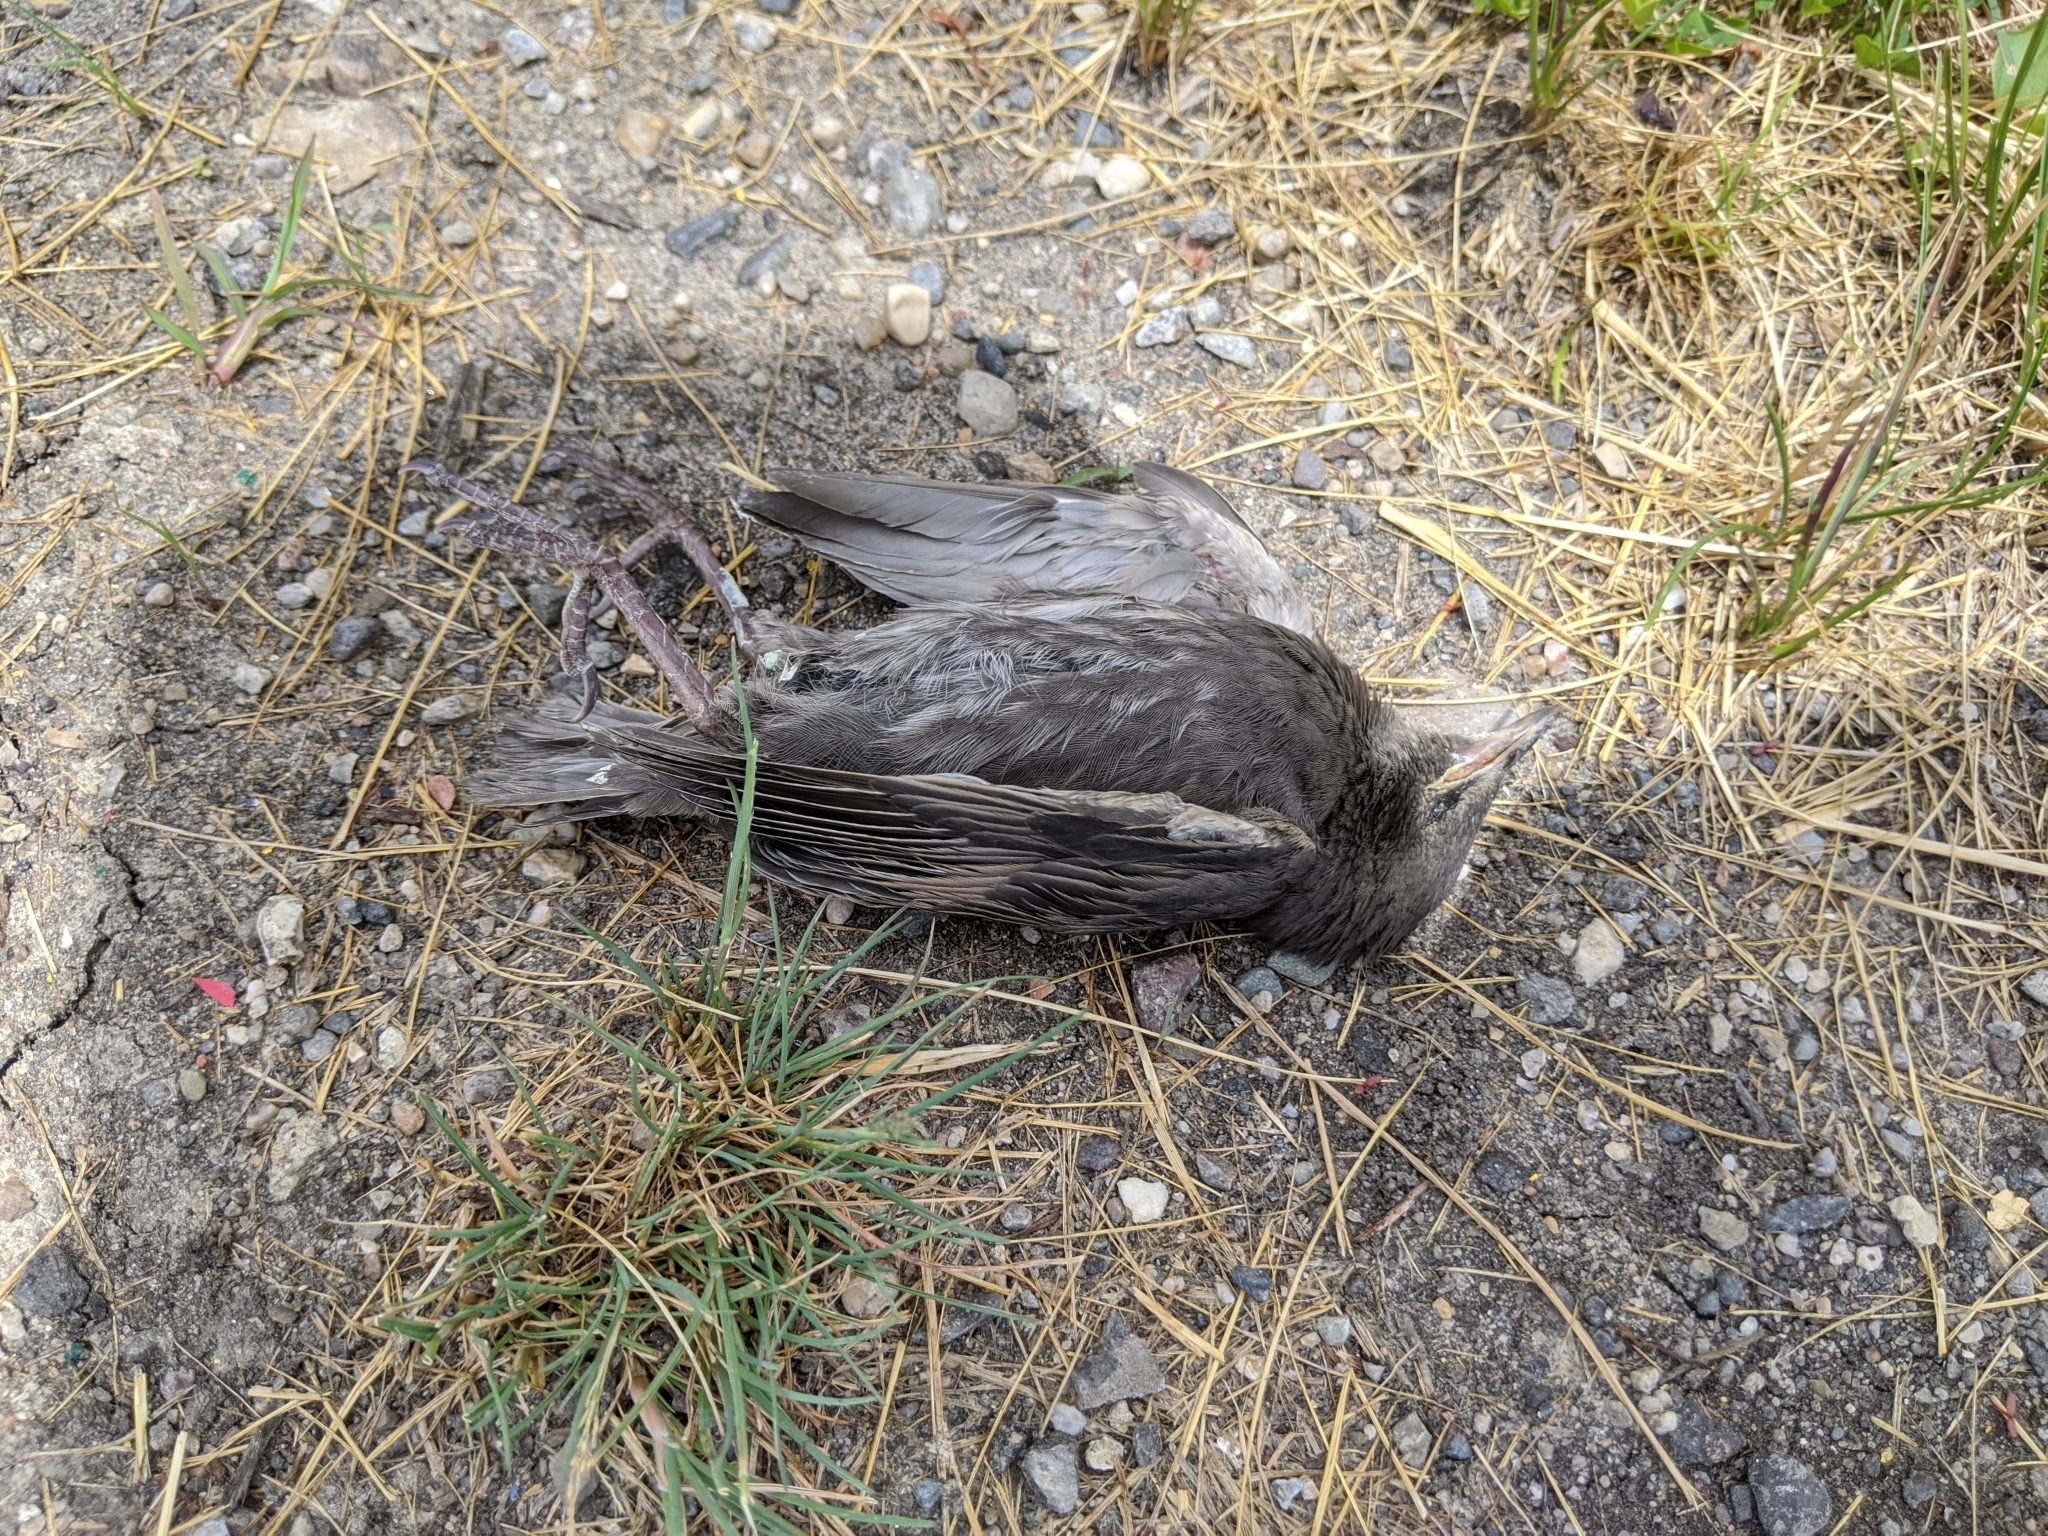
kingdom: Animalia
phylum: Chordata
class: Aves
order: Passeriformes
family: Sturnidae
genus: Sturnus
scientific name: Sturnus vulgaris
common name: Common starling
